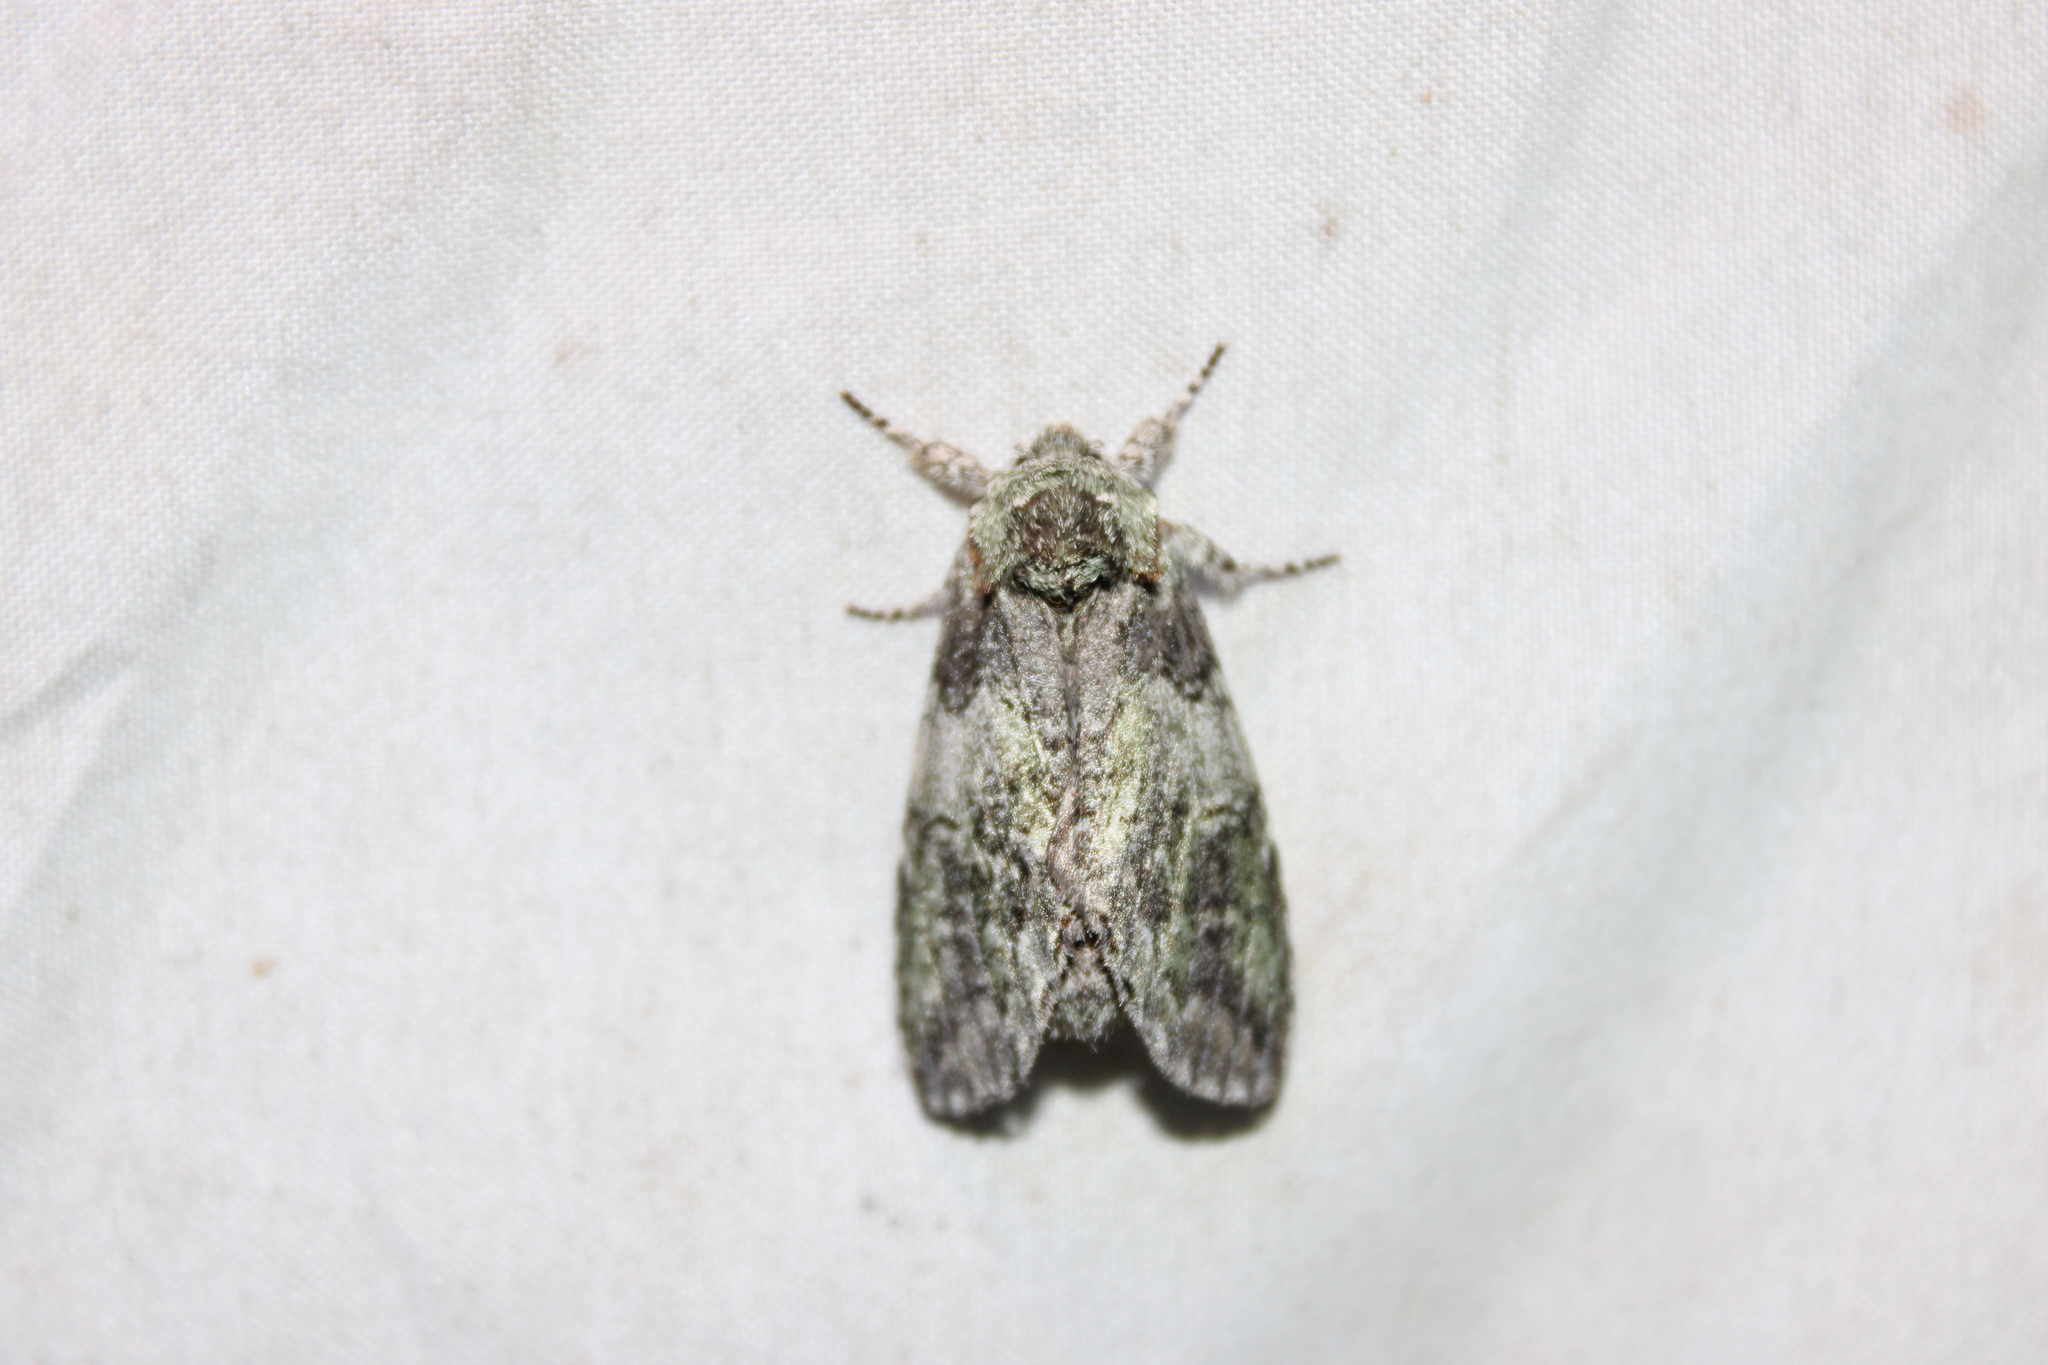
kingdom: Animalia
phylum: Arthropoda
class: Insecta
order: Lepidoptera
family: Notodontidae
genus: Macrurocampa
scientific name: Macrurocampa marthesia
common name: Mottled prominent
